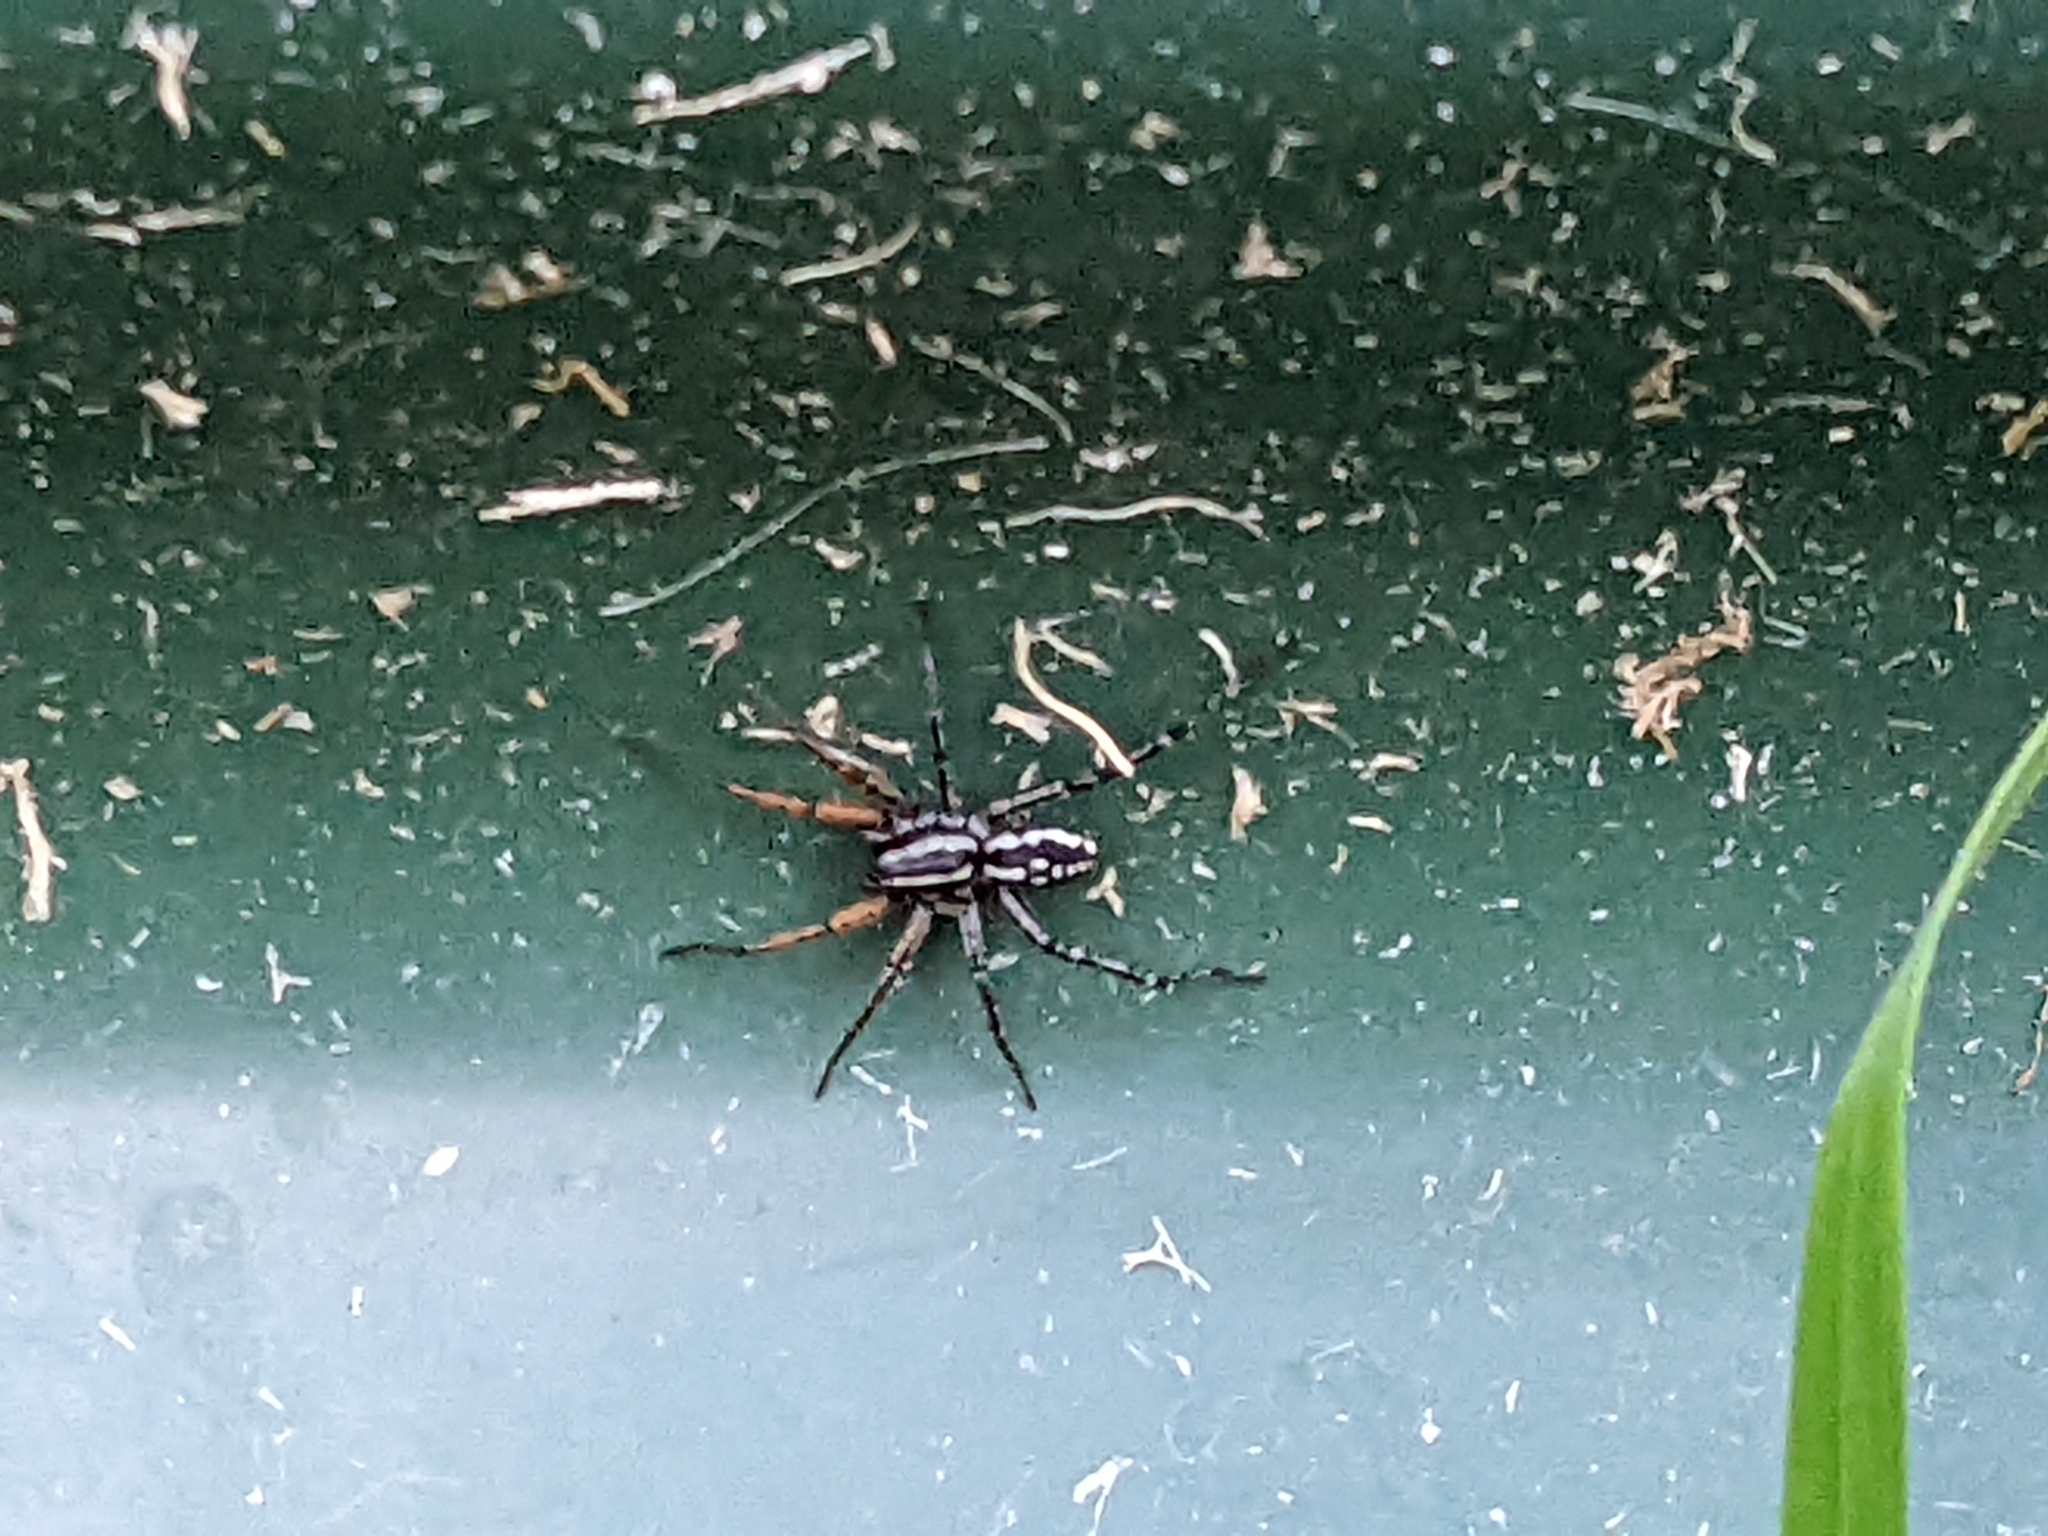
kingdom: Animalia
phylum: Arthropoda
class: Arachnida
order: Araneae
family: Corinnidae
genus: Nyssus
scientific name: Nyssus coloripes
